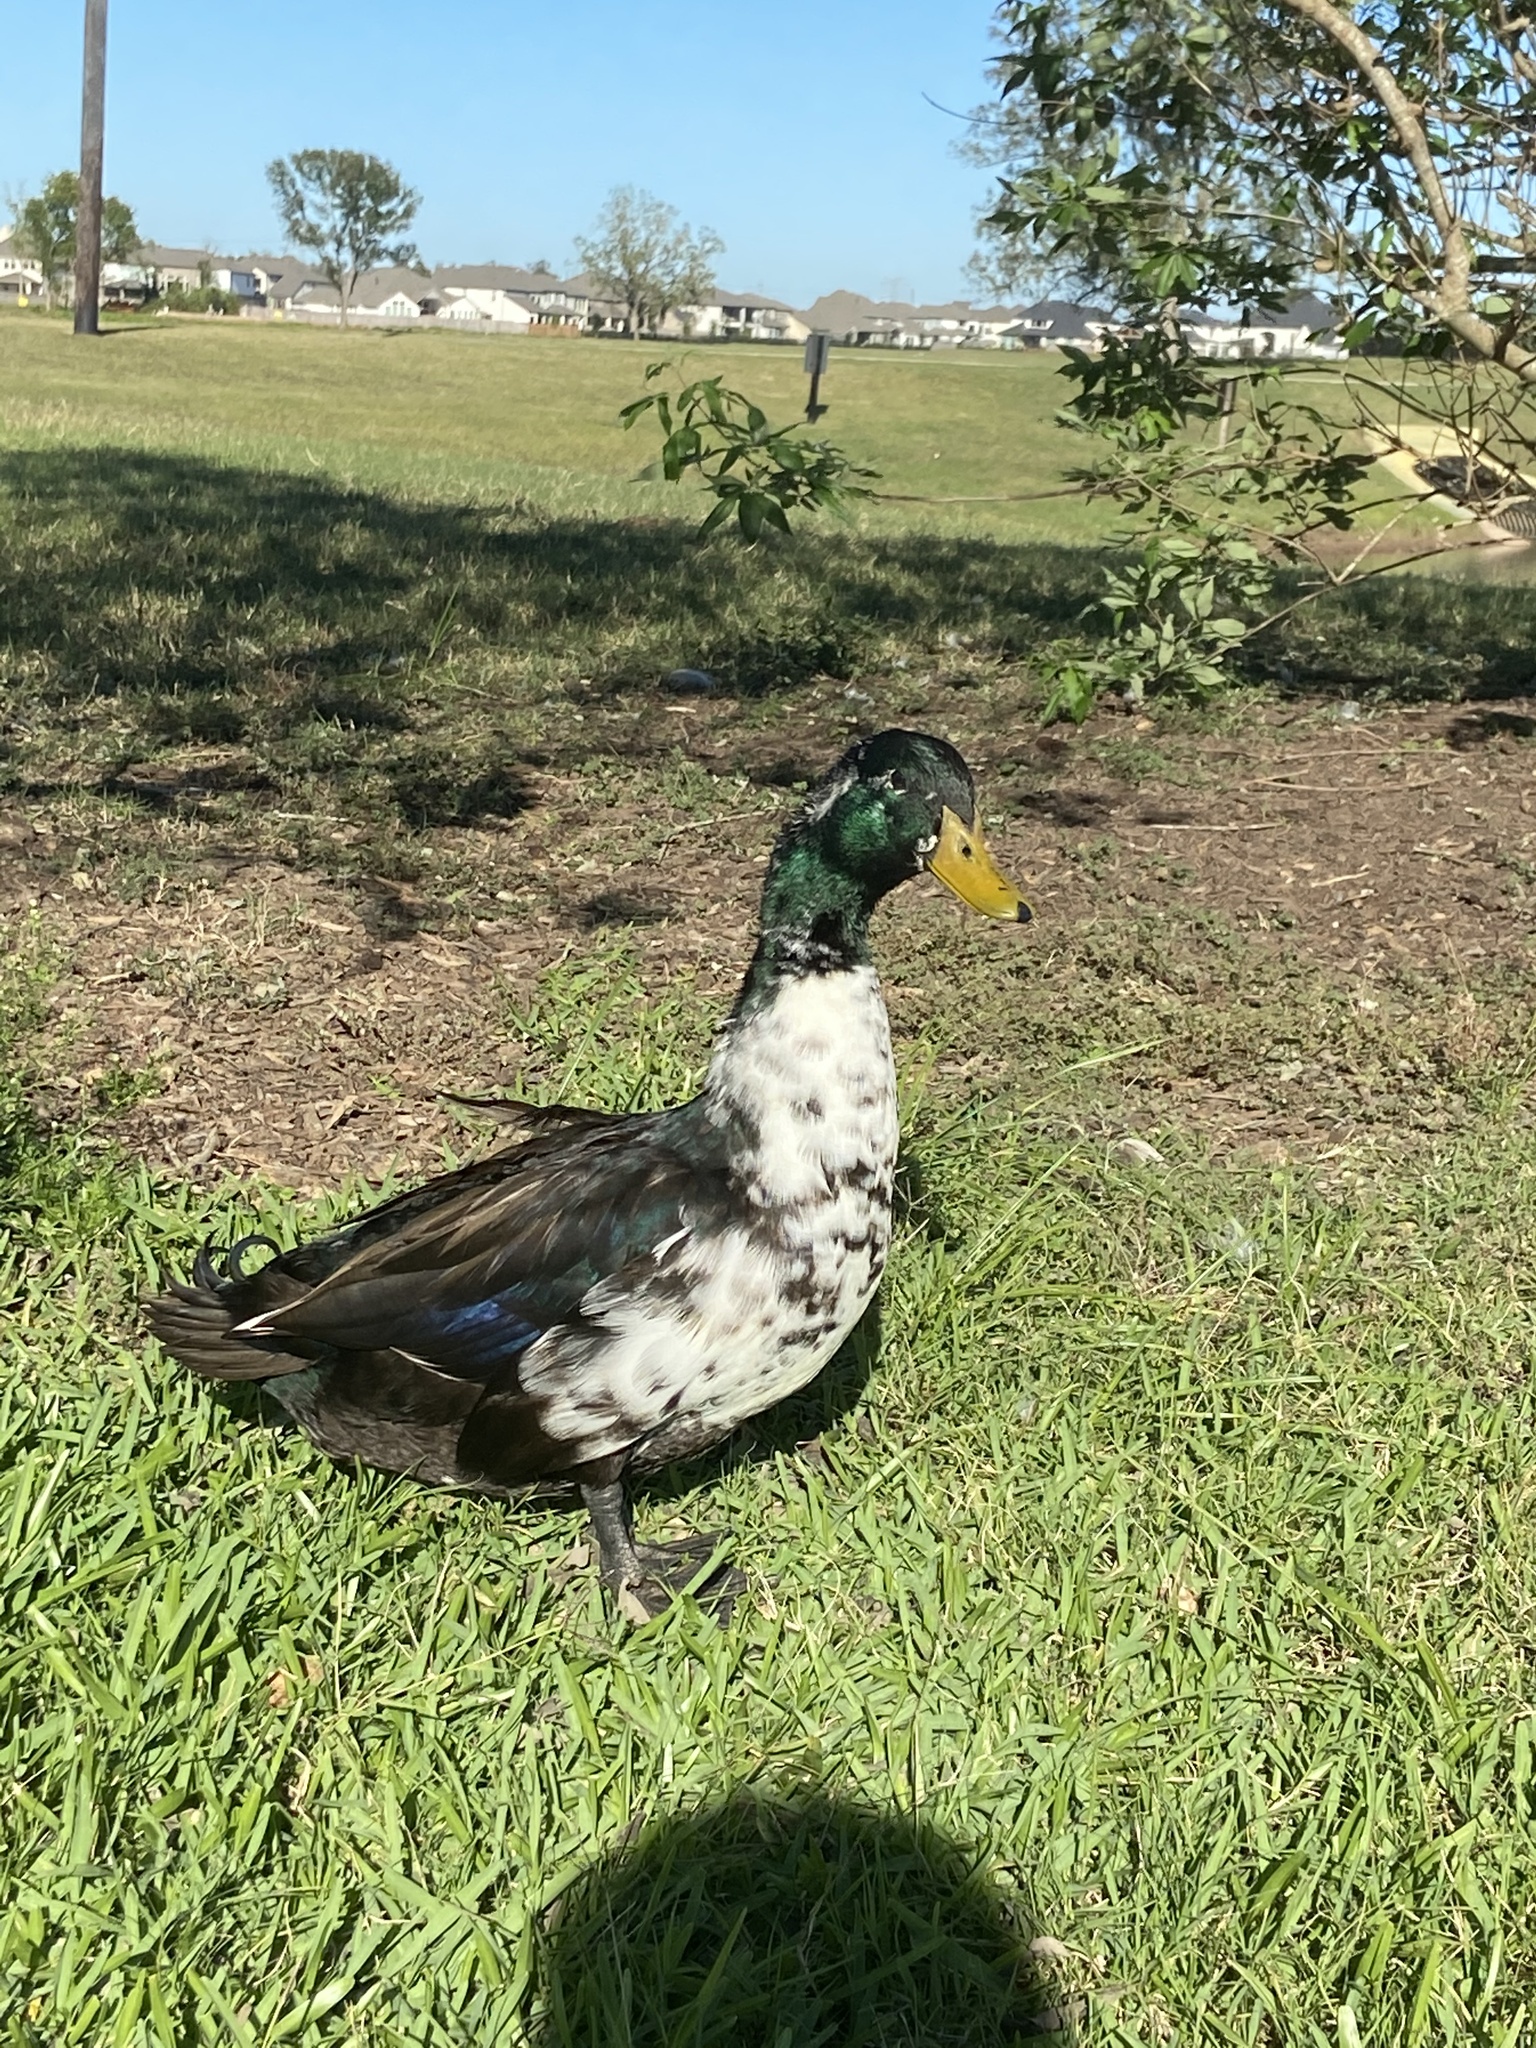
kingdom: Animalia
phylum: Chordata
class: Aves
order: Anseriformes
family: Anatidae
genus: Anas
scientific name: Anas platyrhynchos
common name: Mallard
